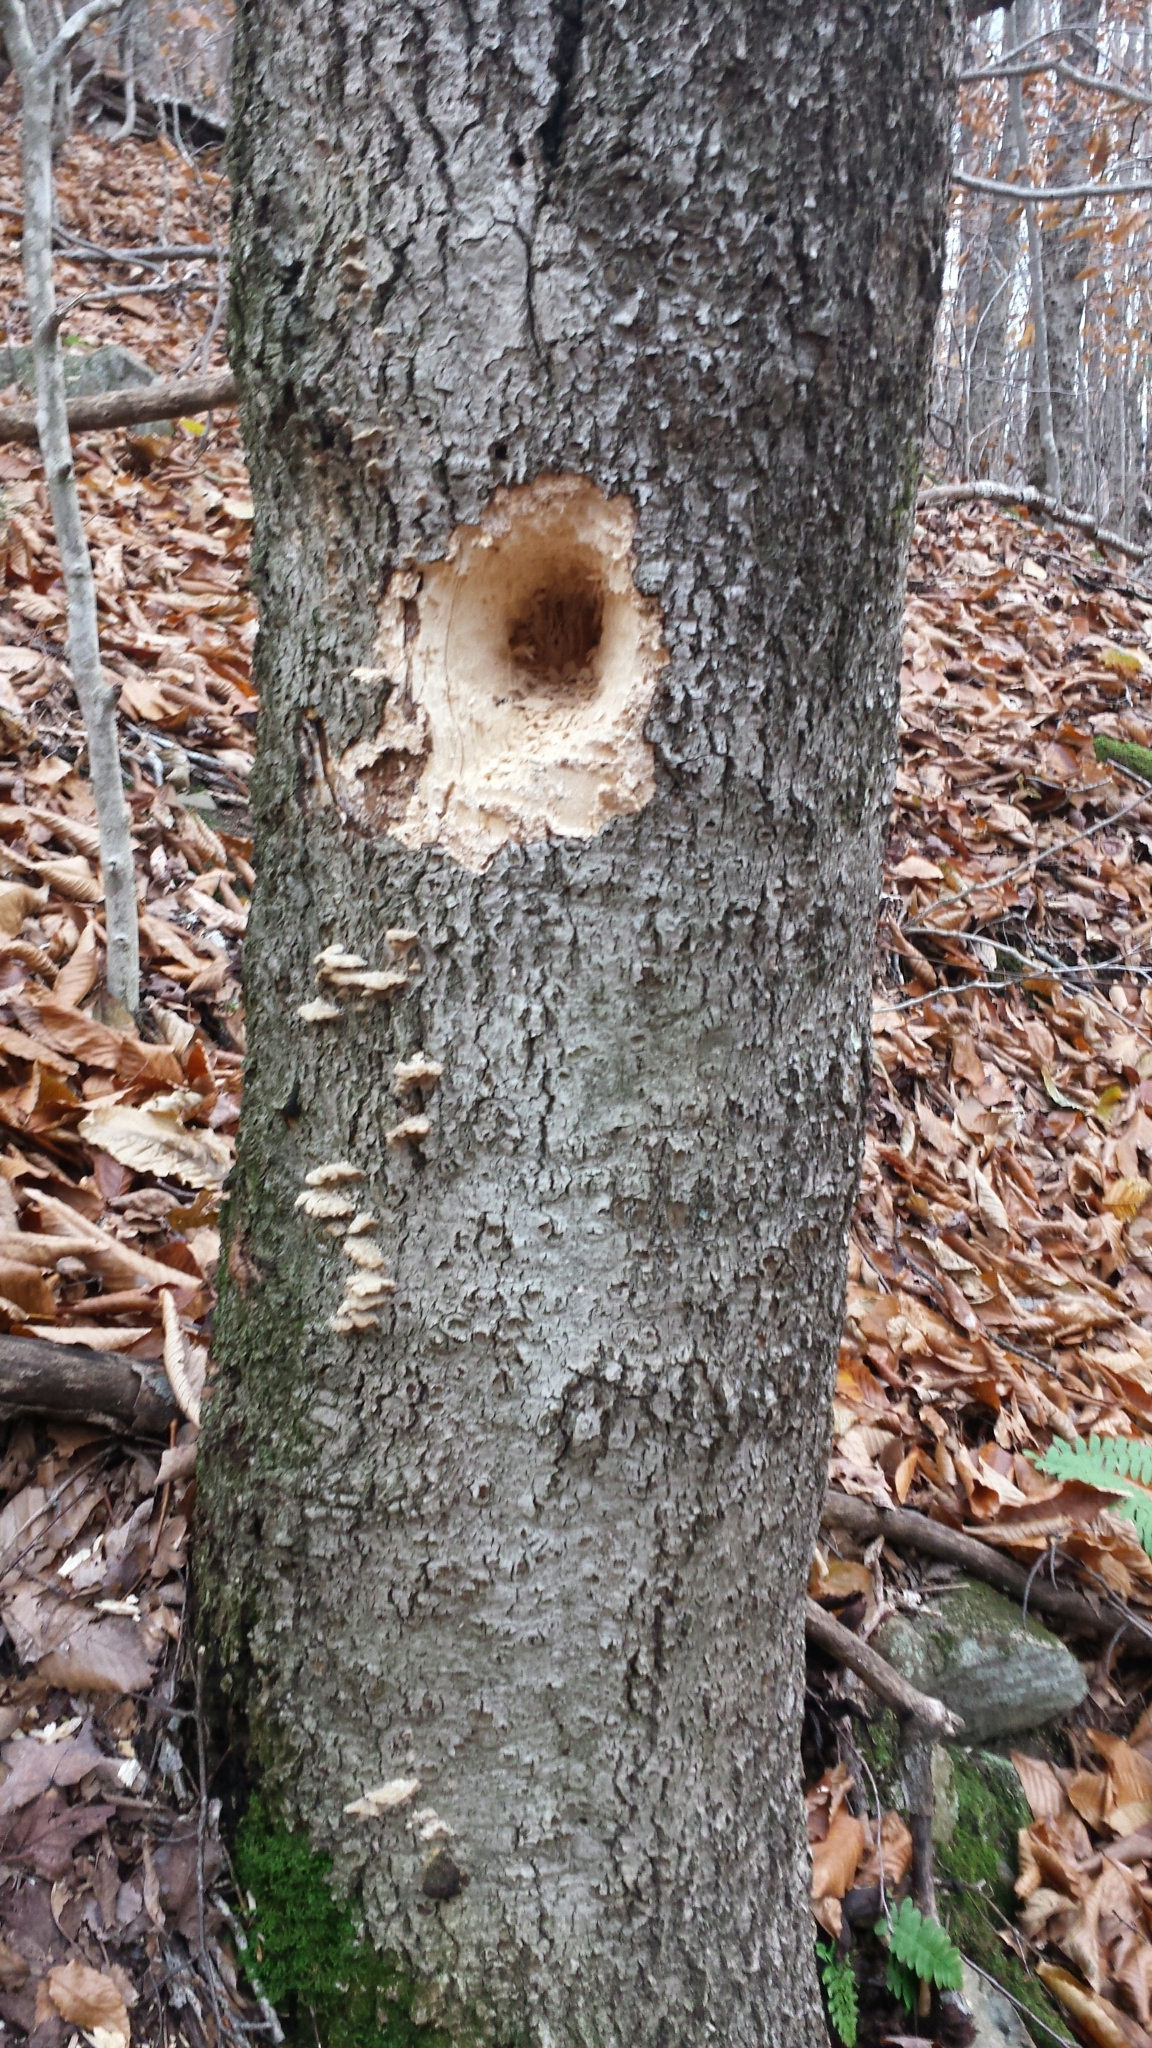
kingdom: Animalia
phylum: Chordata
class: Aves
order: Piciformes
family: Picidae
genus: Dryocopus
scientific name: Dryocopus pileatus
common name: Pileated woodpecker
